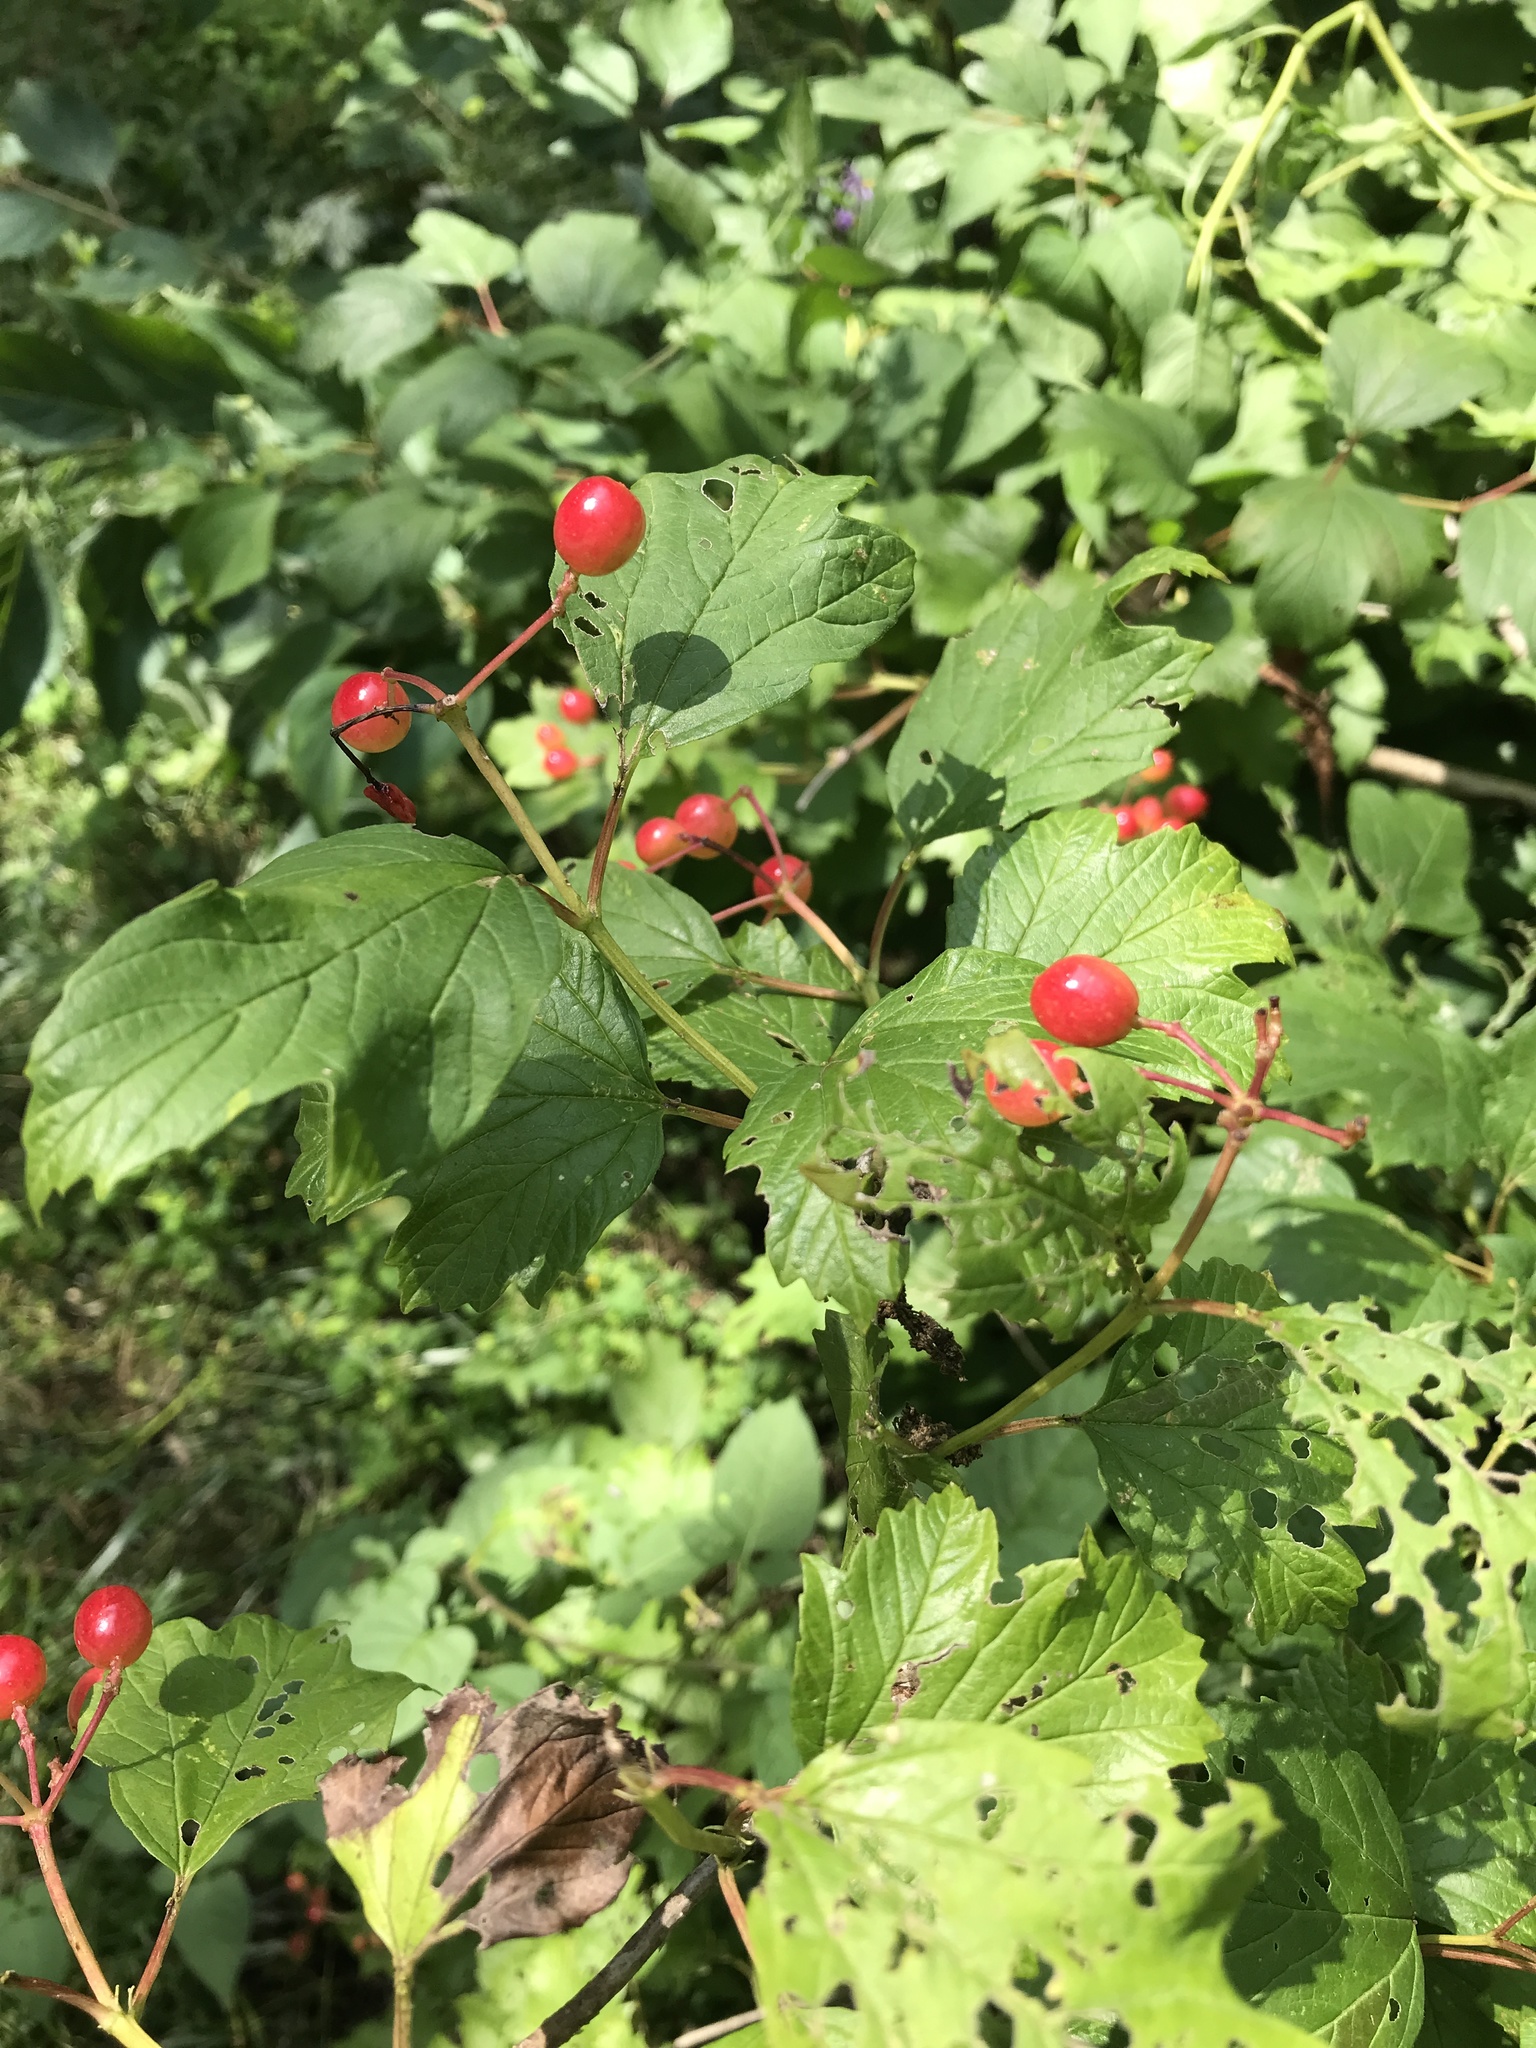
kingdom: Plantae
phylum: Tracheophyta
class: Magnoliopsida
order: Dipsacales
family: Viburnaceae
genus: Viburnum
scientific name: Viburnum opulus
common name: Guelder-rose
